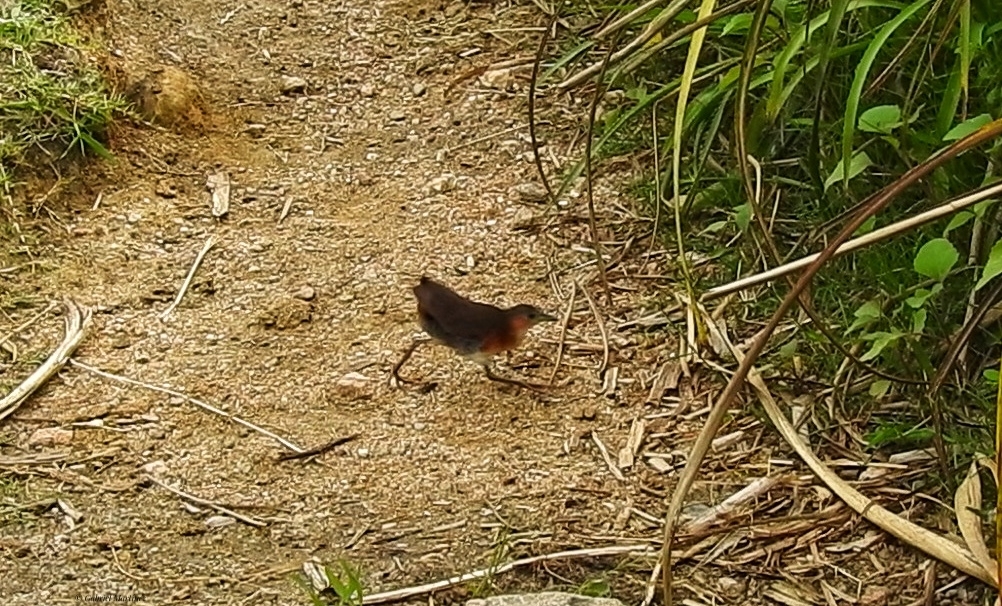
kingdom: Animalia
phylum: Chordata
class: Aves
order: Gruiformes
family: Rallidae
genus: Laterallus
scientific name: Laterallus melanophaius
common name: Rufous-sided crake
